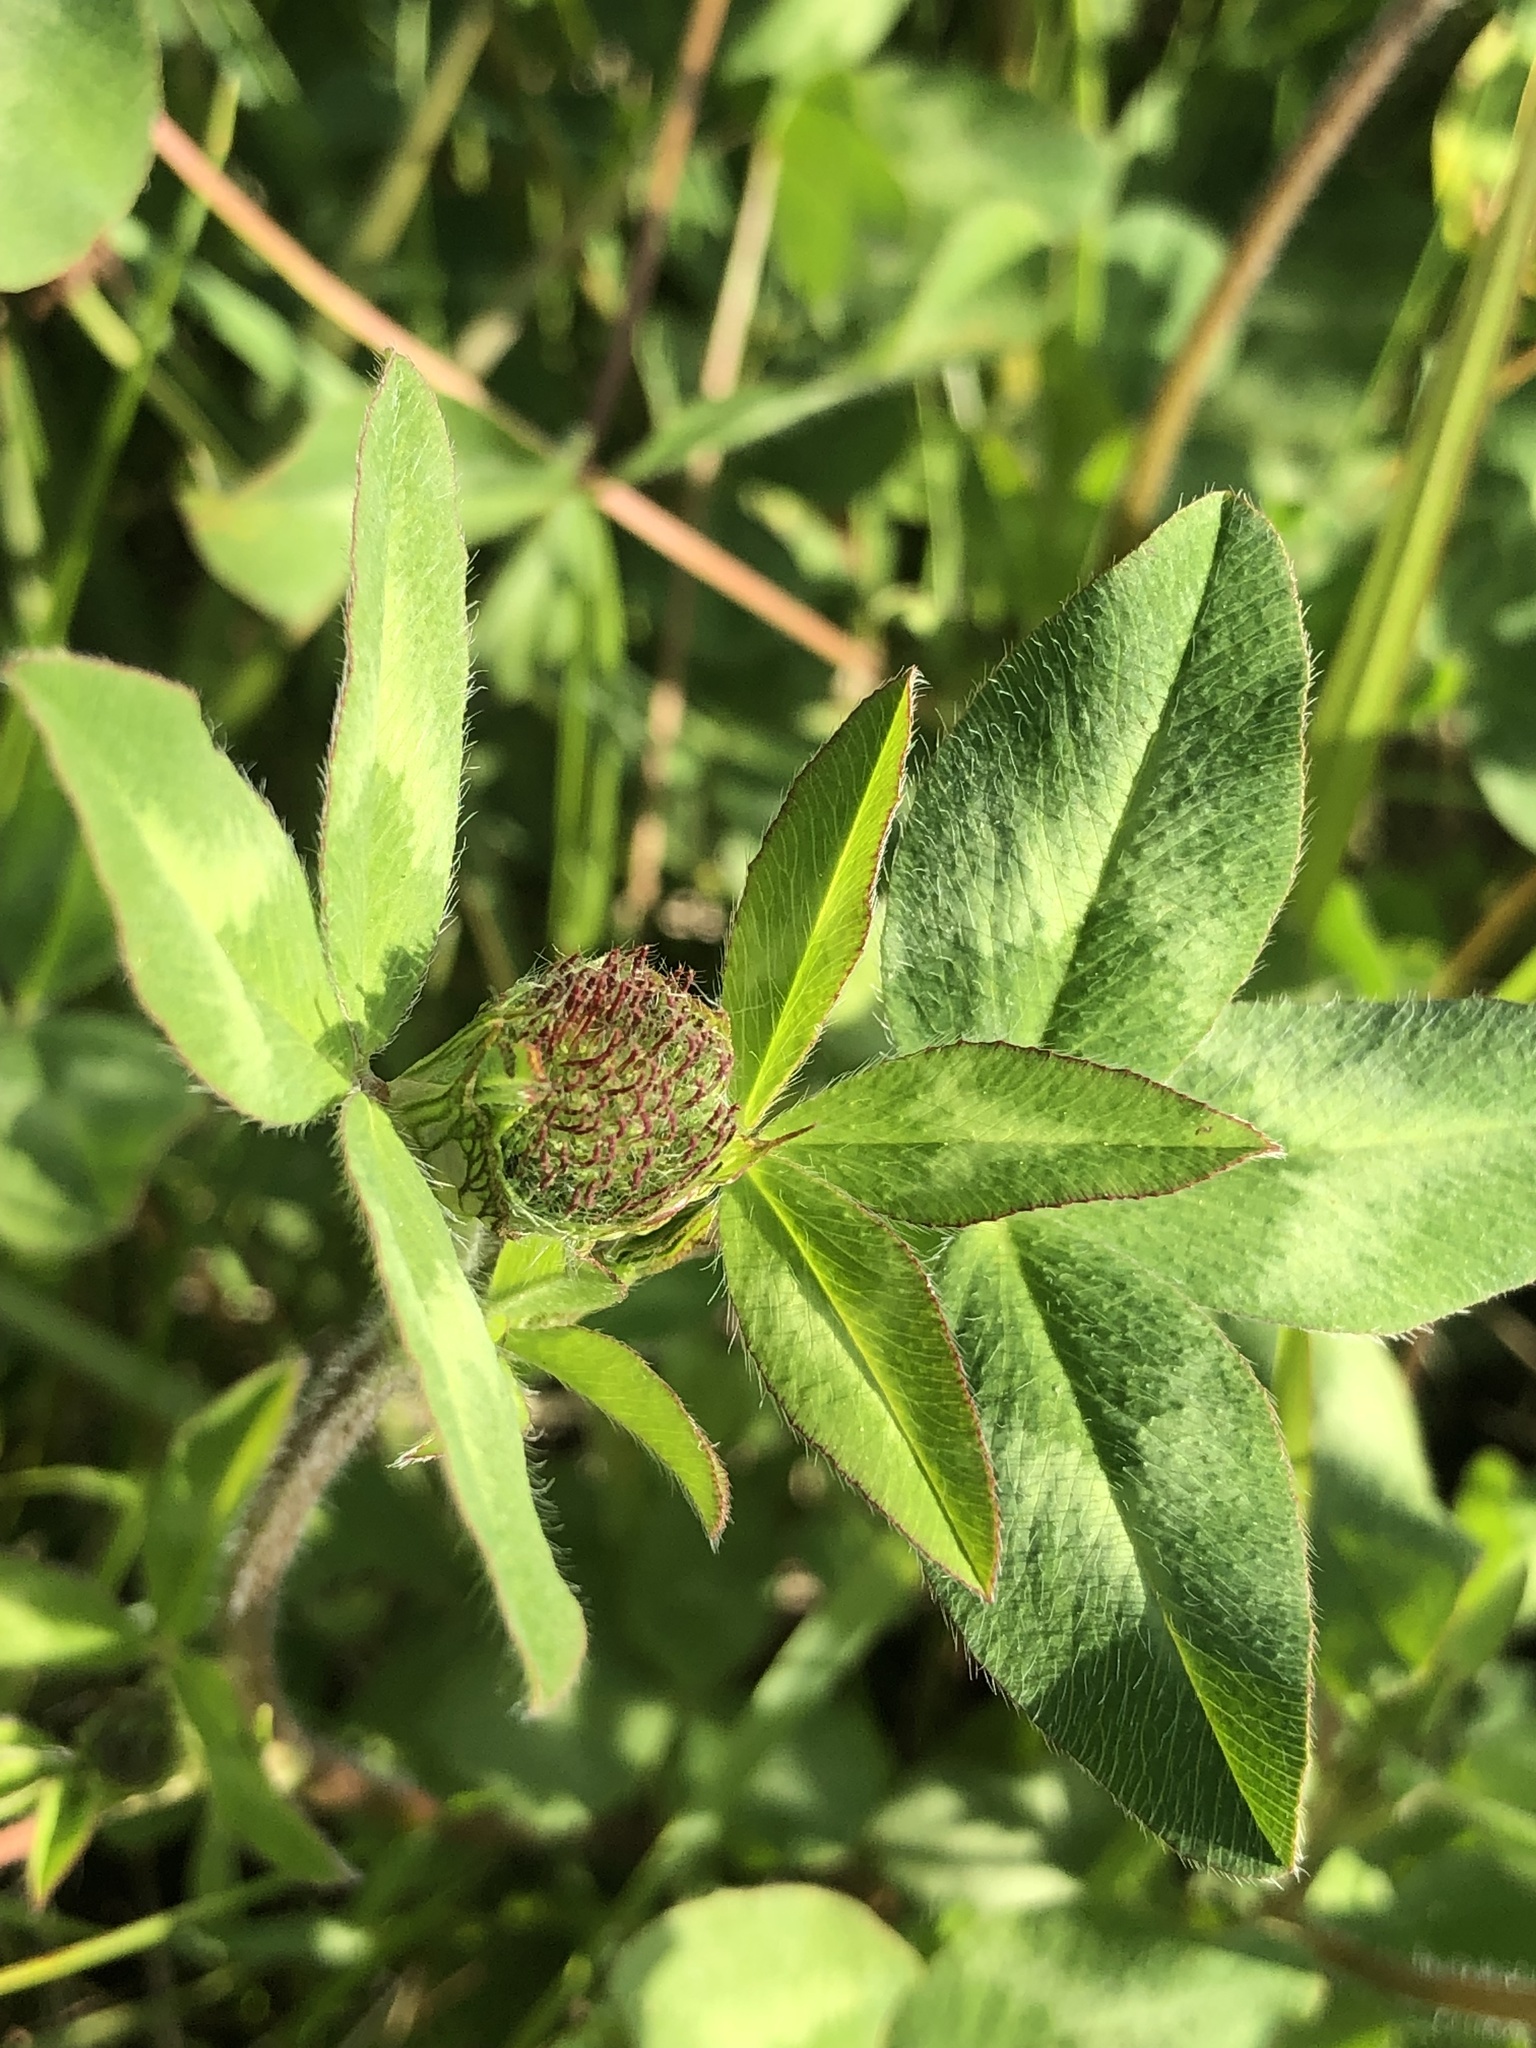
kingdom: Plantae
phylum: Tracheophyta
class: Magnoliopsida
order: Fabales
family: Fabaceae
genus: Trifolium
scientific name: Trifolium pratense
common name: Red clover
